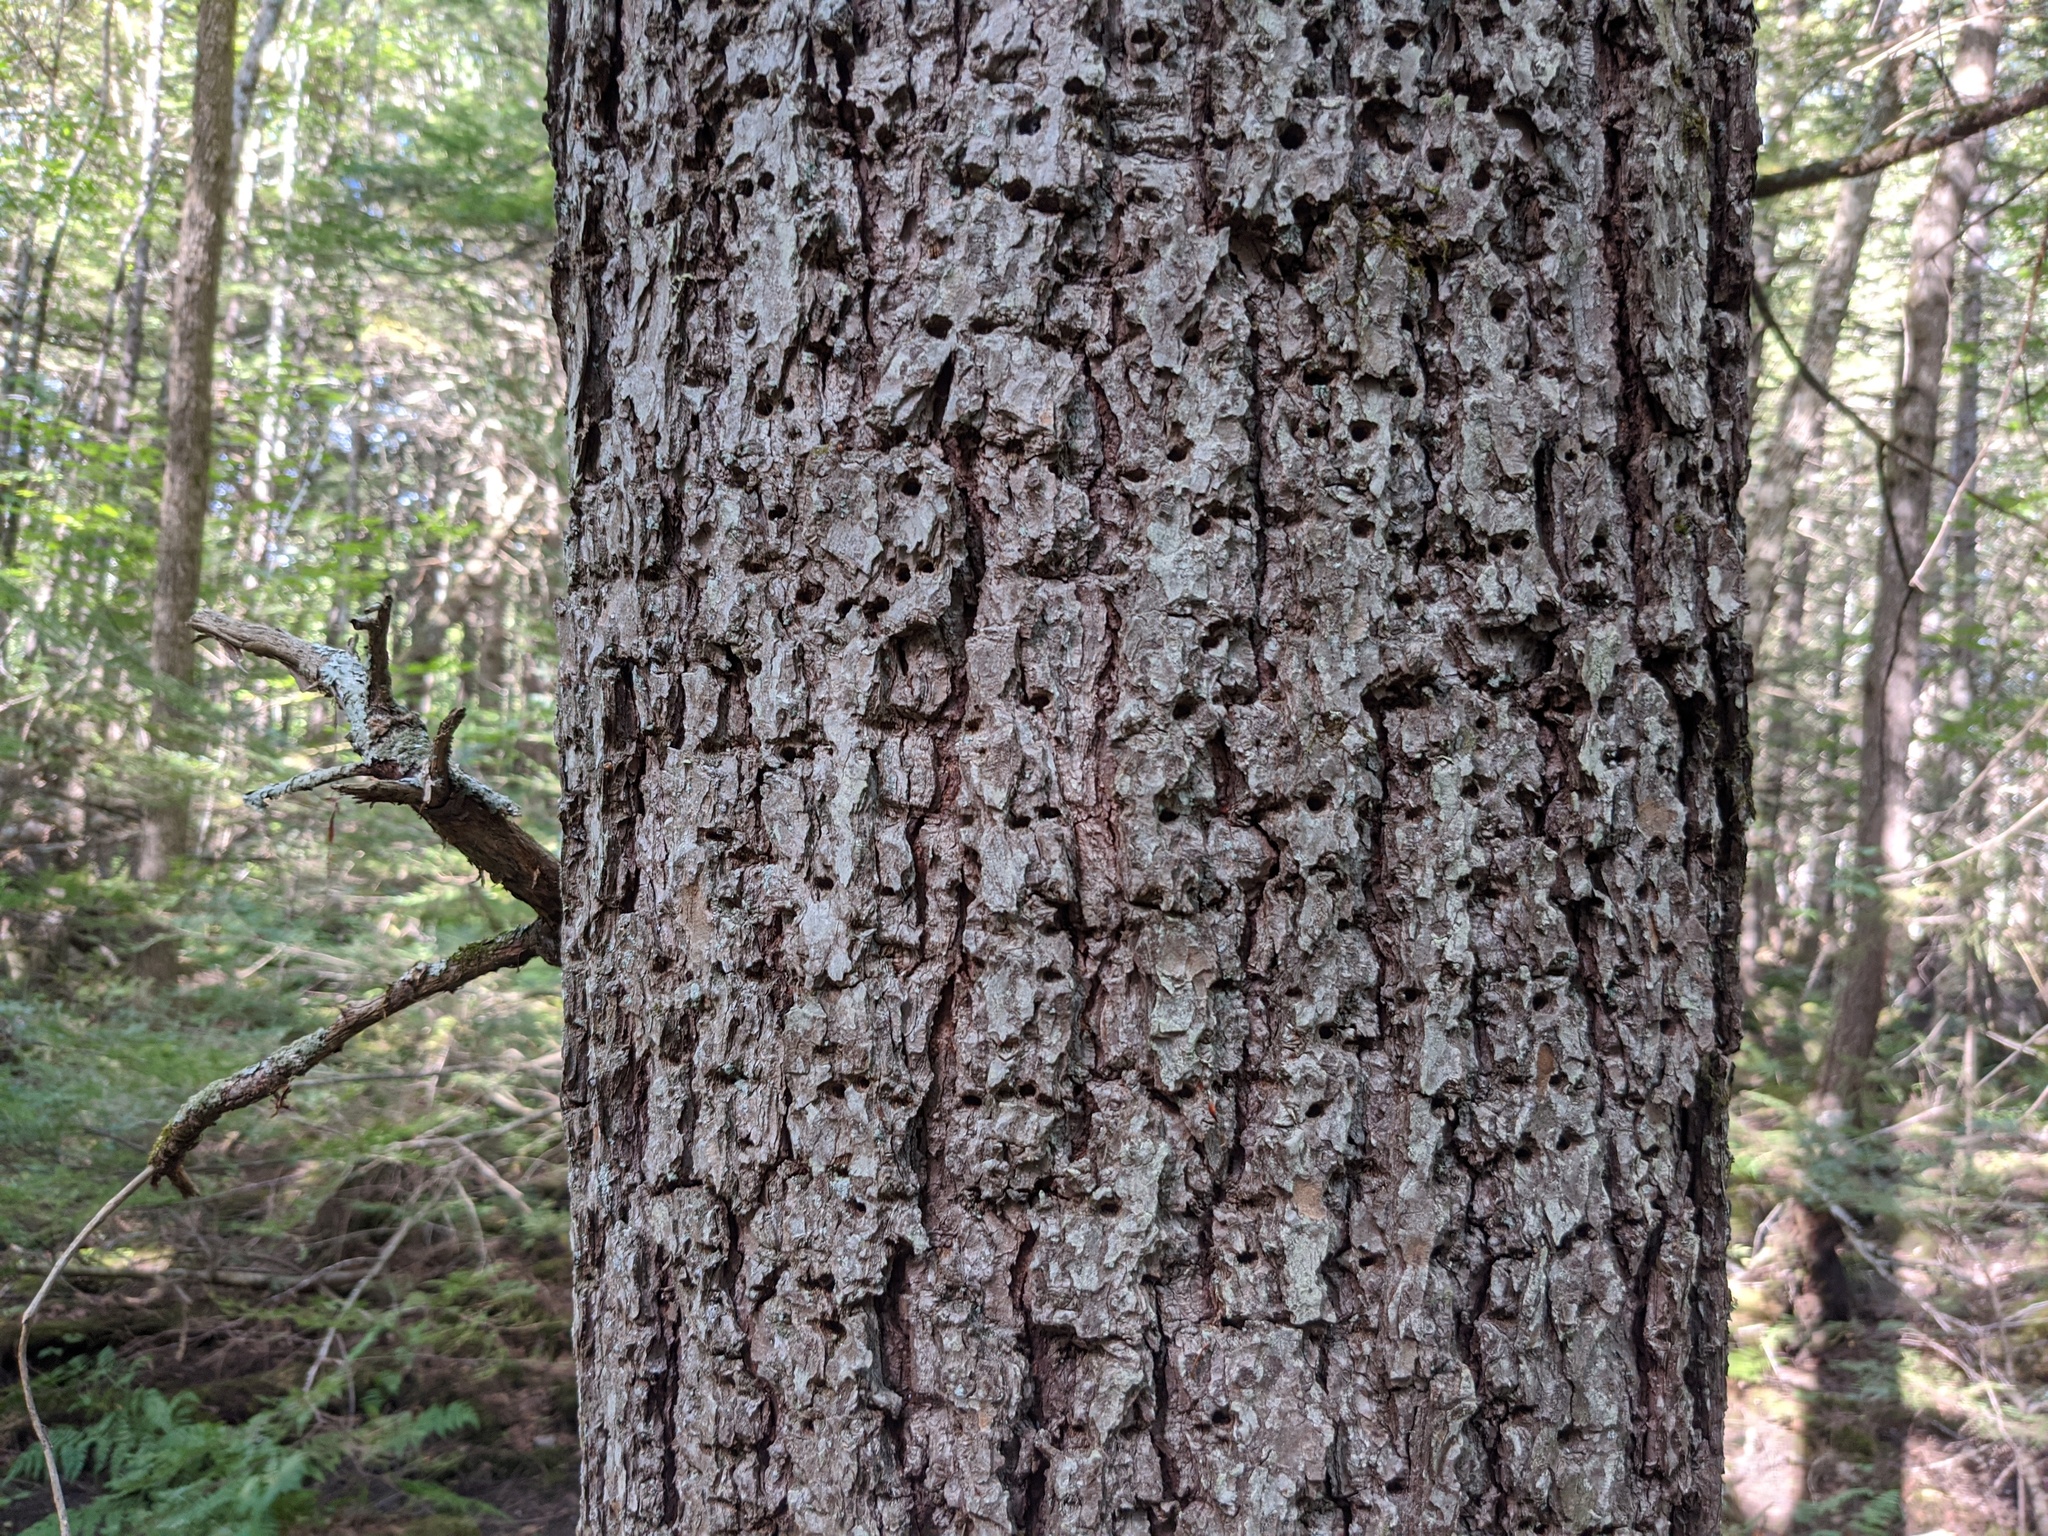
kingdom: Animalia
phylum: Chordata
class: Aves
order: Piciformes
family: Picidae
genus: Sphyrapicus
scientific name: Sphyrapicus varius
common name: Yellow-bellied sapsucker
